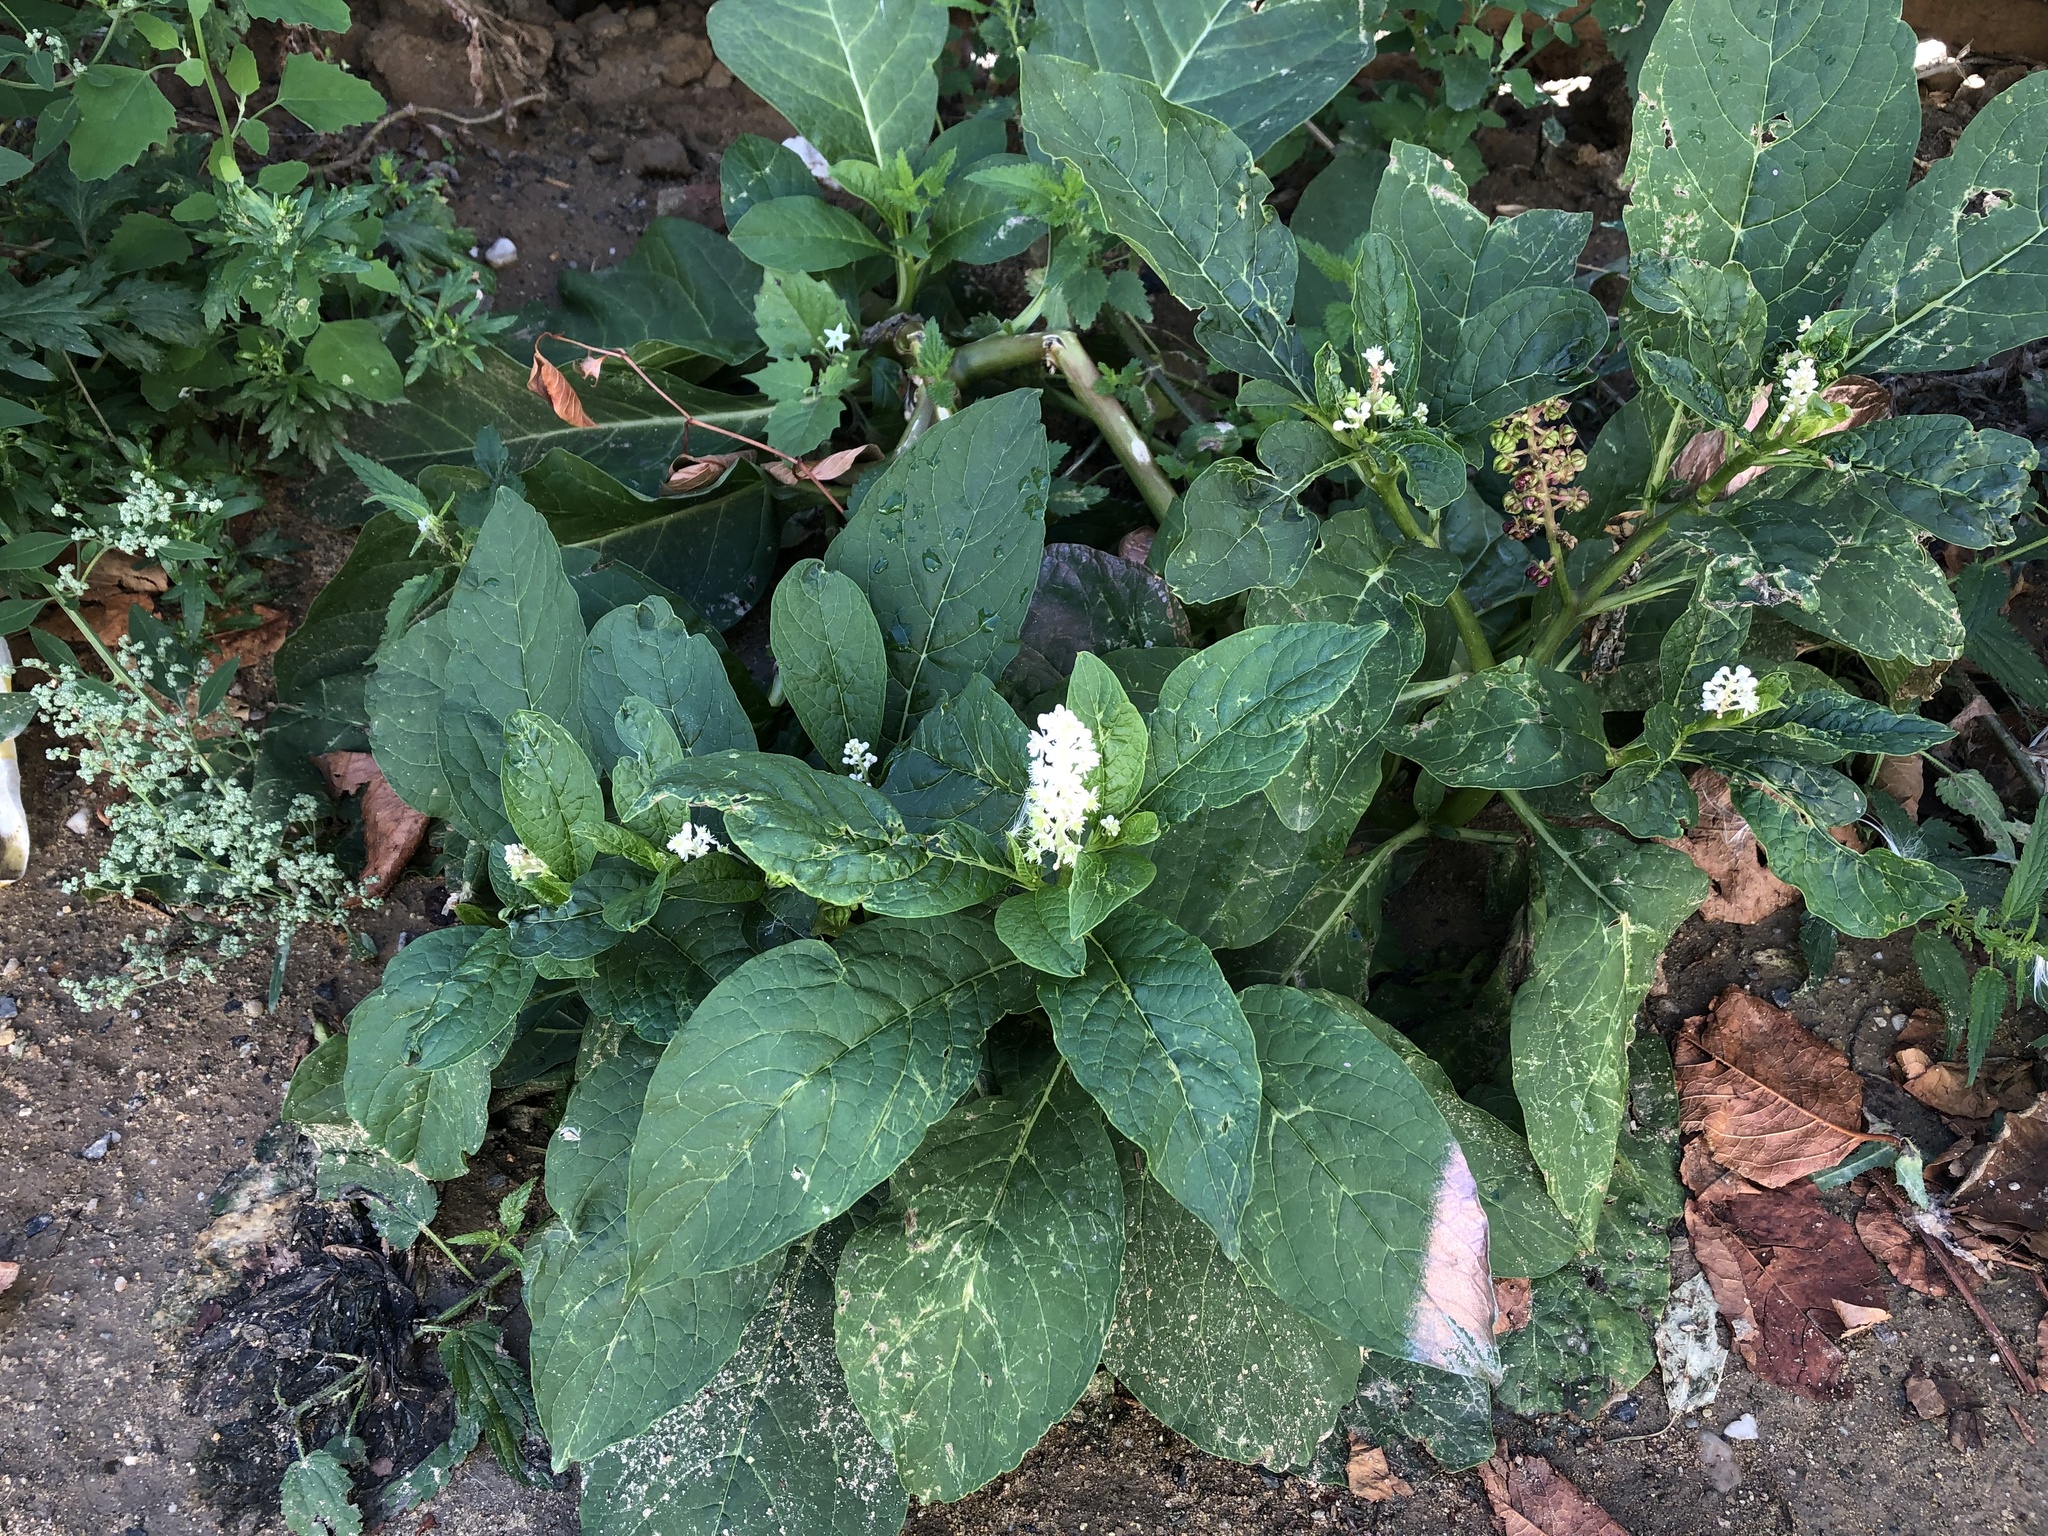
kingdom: Plantae
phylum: Tracheophyta
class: Magnoliopsida
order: Caryophyllales
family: Phytolaccaceae
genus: Phytolacca
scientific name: Phytolacca acinosa
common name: Indian pokeweed
